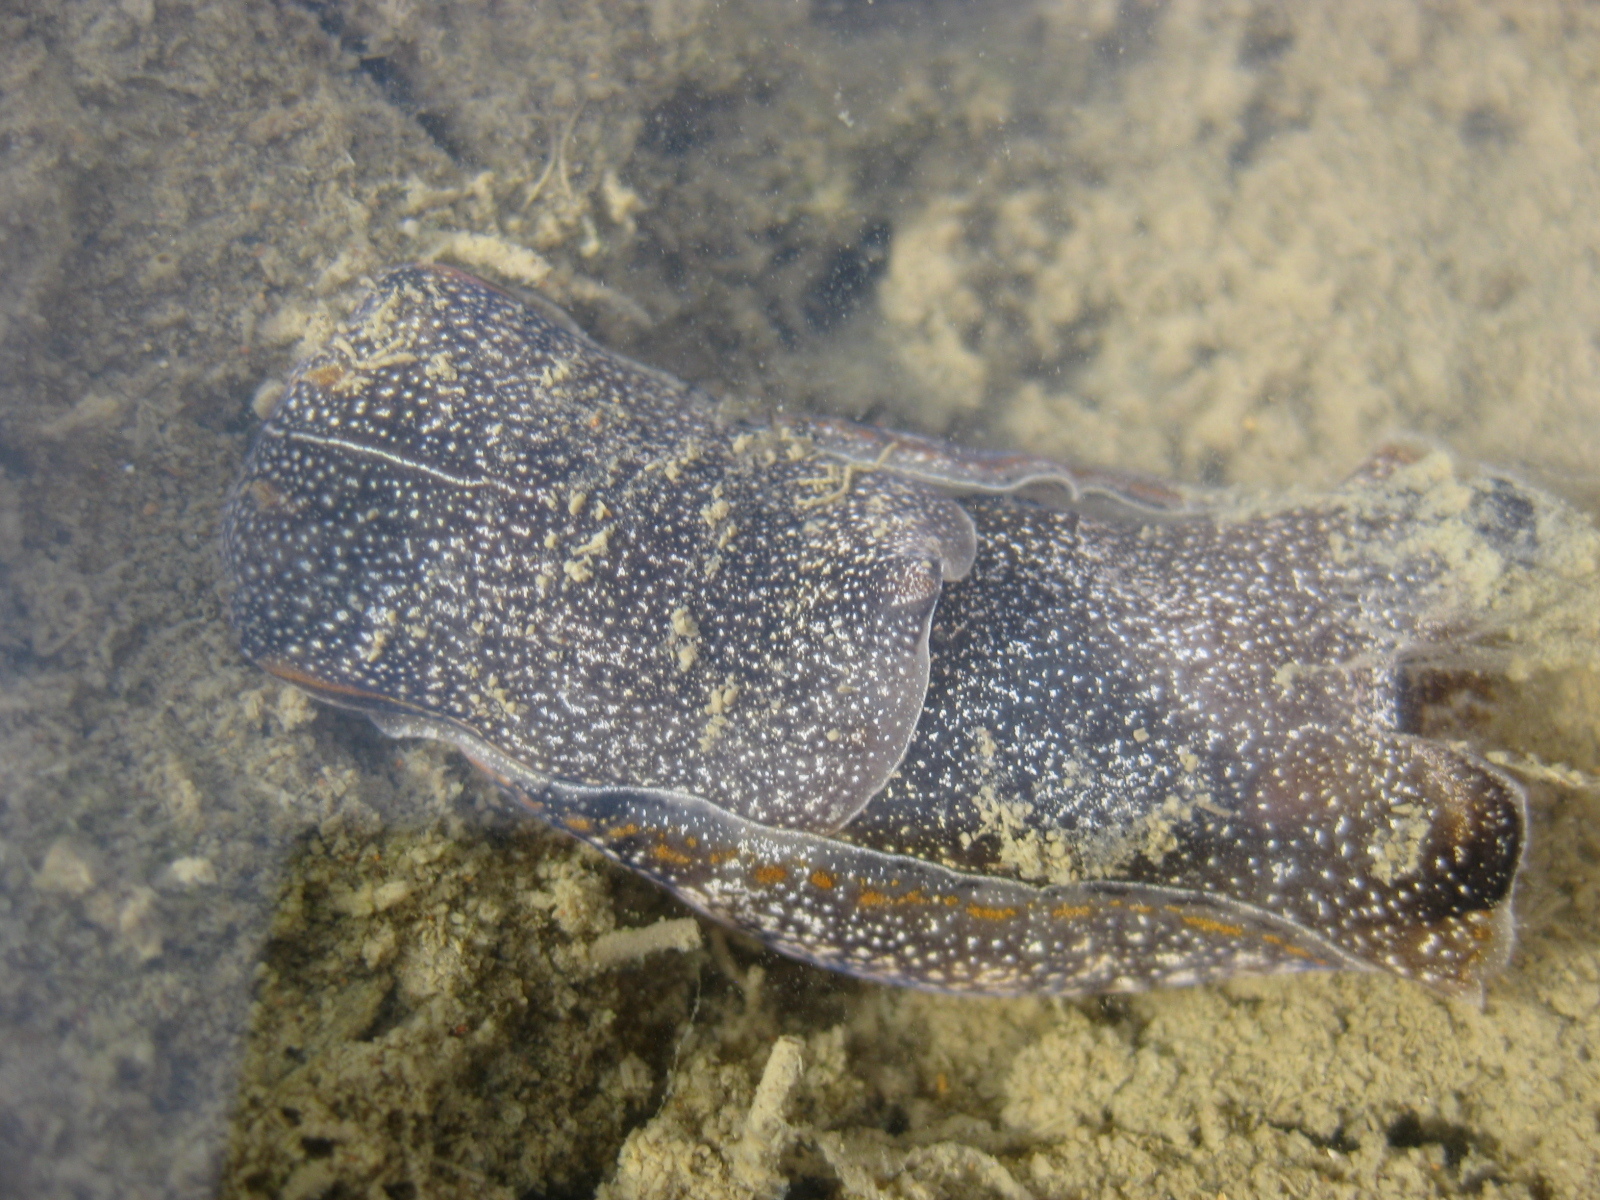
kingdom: Animalia
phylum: Mollusca
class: Gastropoda
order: Cephalaspidea
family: Aglajidae
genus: Philinopsis
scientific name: Philinopsis taronga
